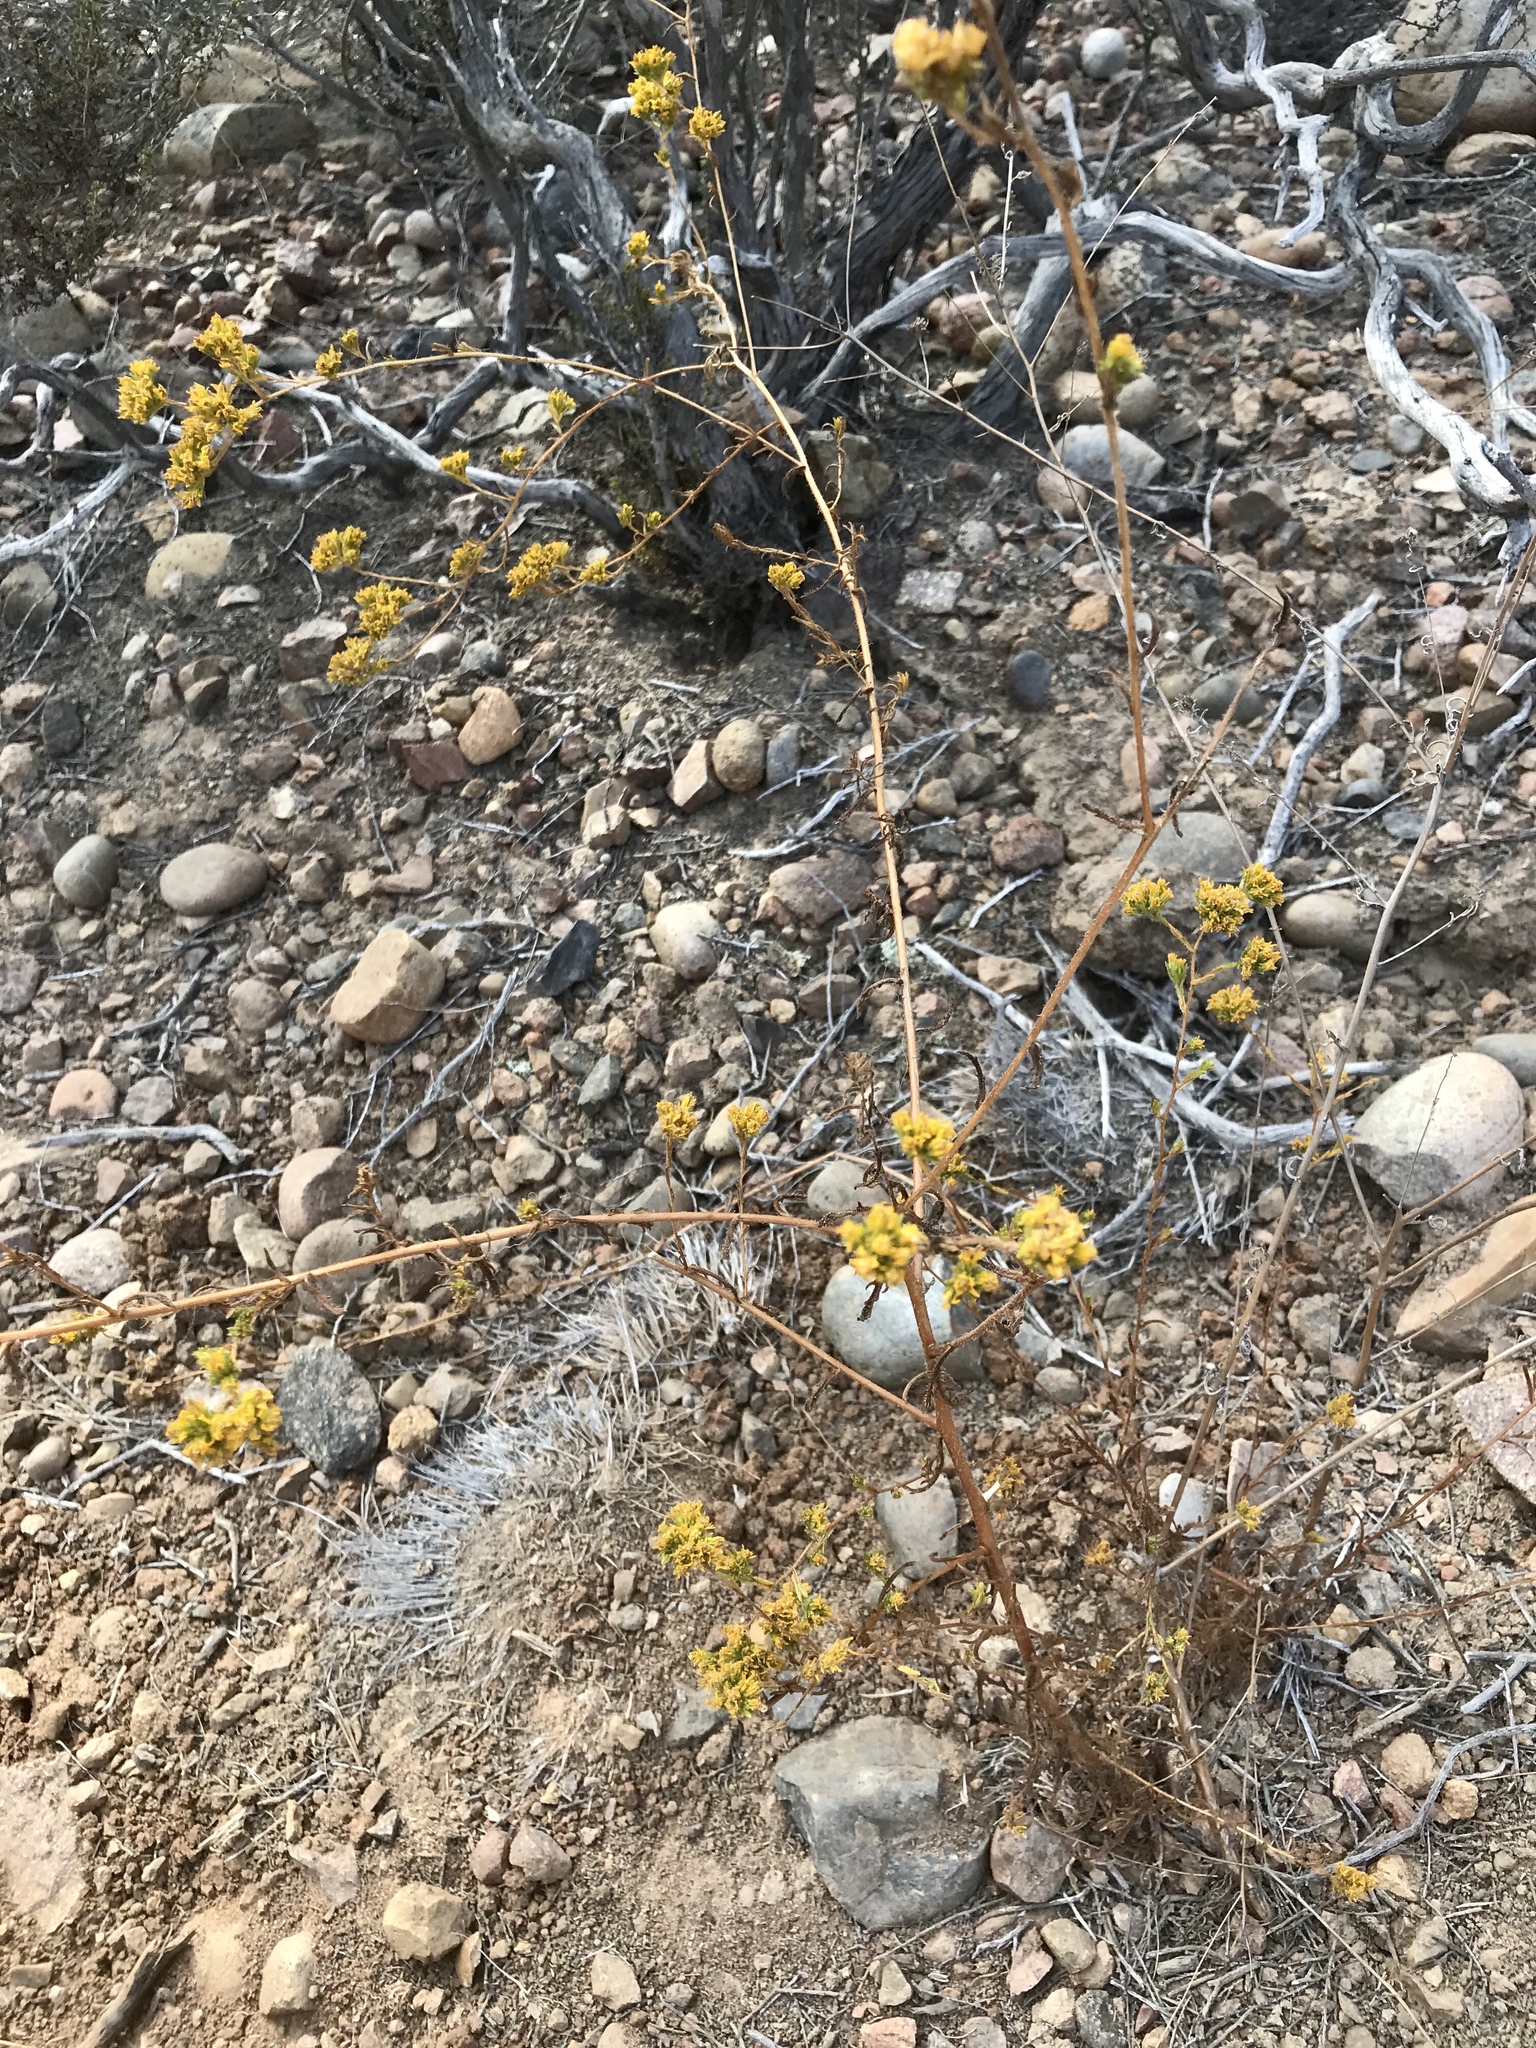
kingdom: Plantae
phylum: Tracheophyta
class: Magnoliopsida
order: Asterales
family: Asteraceae
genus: Deinandra
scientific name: Deinandra fasciculata
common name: Clustered tarweed
